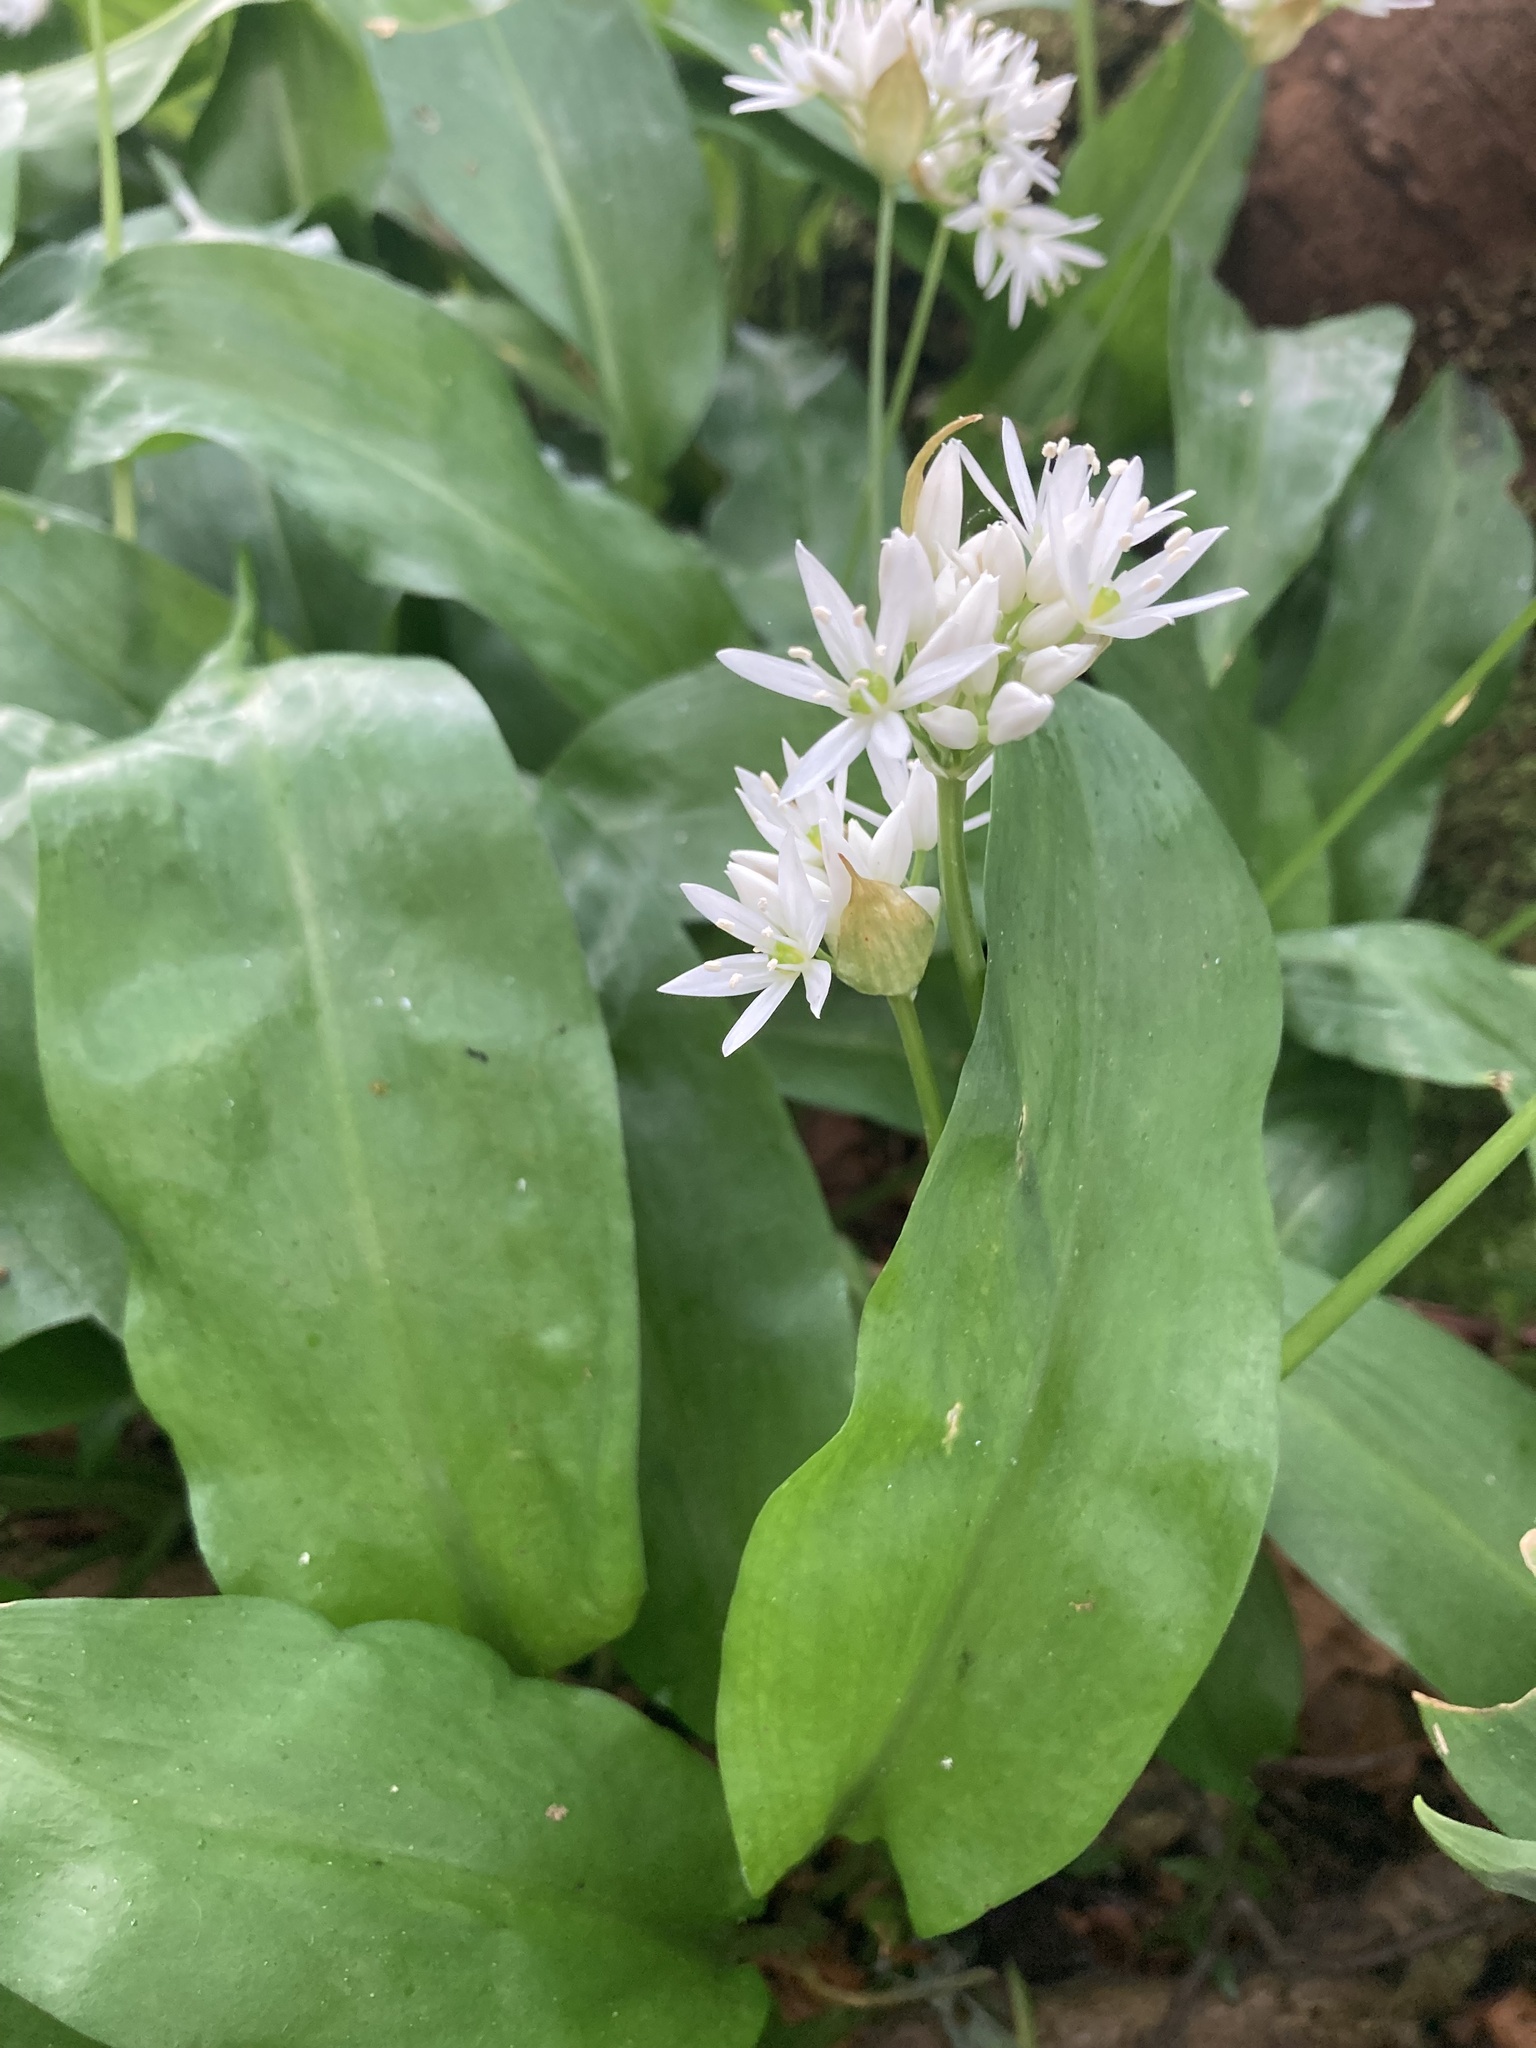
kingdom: Plantae
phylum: Tracheophyta
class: Liliopsida
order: Asparagales
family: Amaryllidaceae
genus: Allium
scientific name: Allium ursinum
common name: Ramsons
